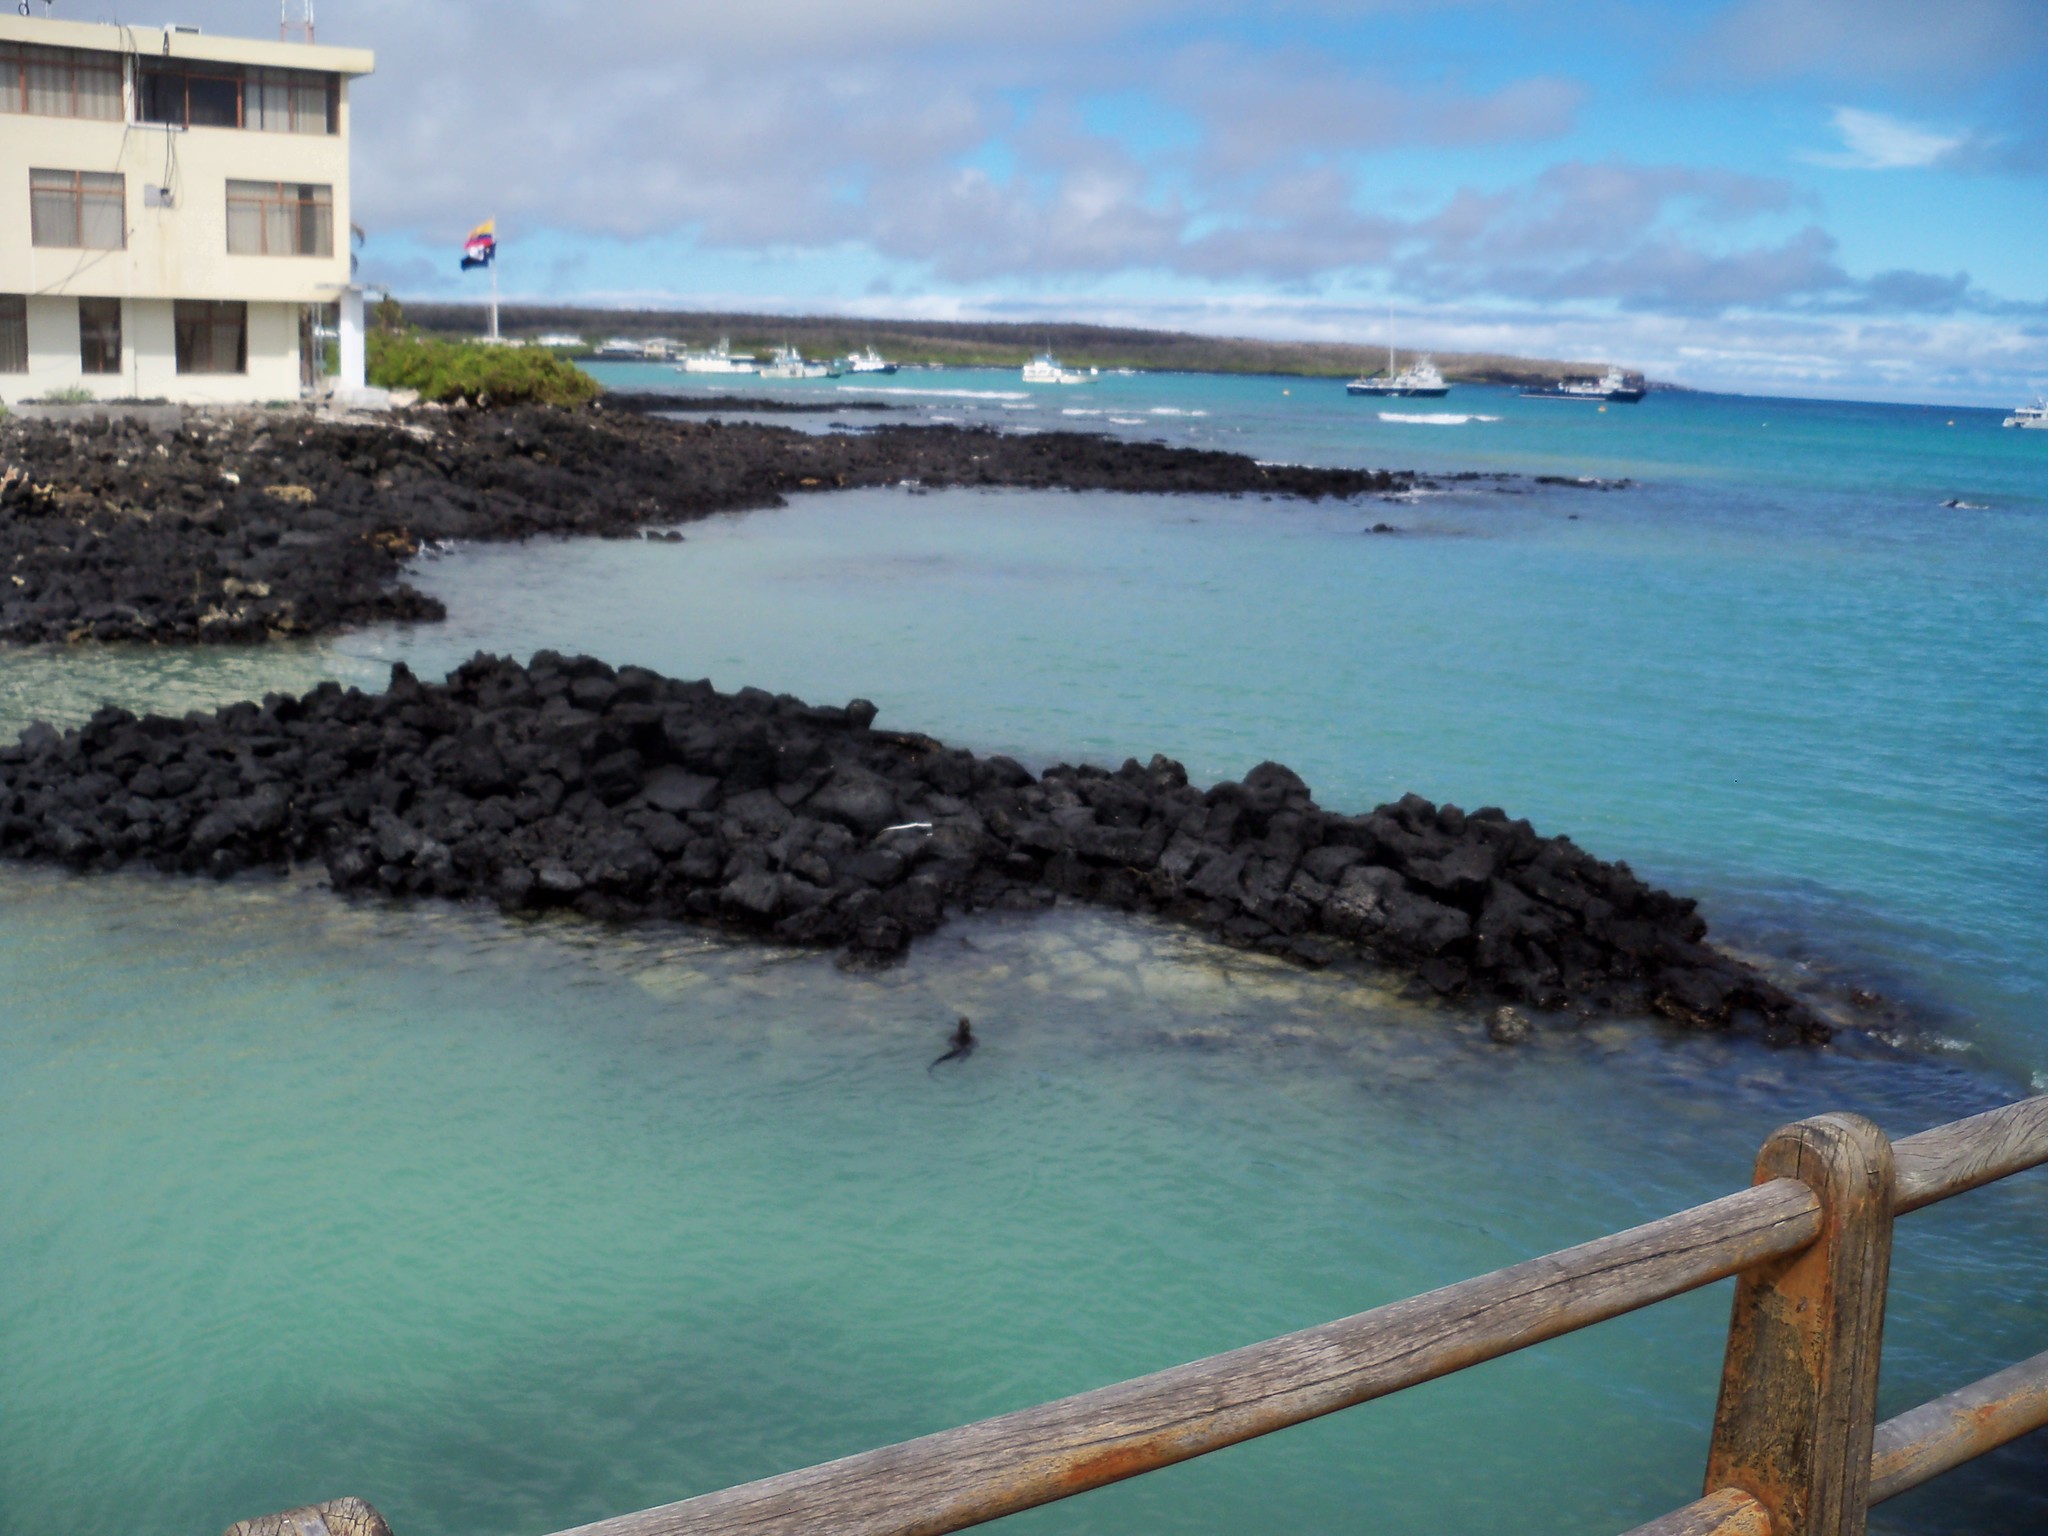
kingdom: Animalia
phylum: Chordata
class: Squamata
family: Iguanidae
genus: Amblyrhynchus
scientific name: Amblyrhynchus cristatus
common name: Marine iguana
